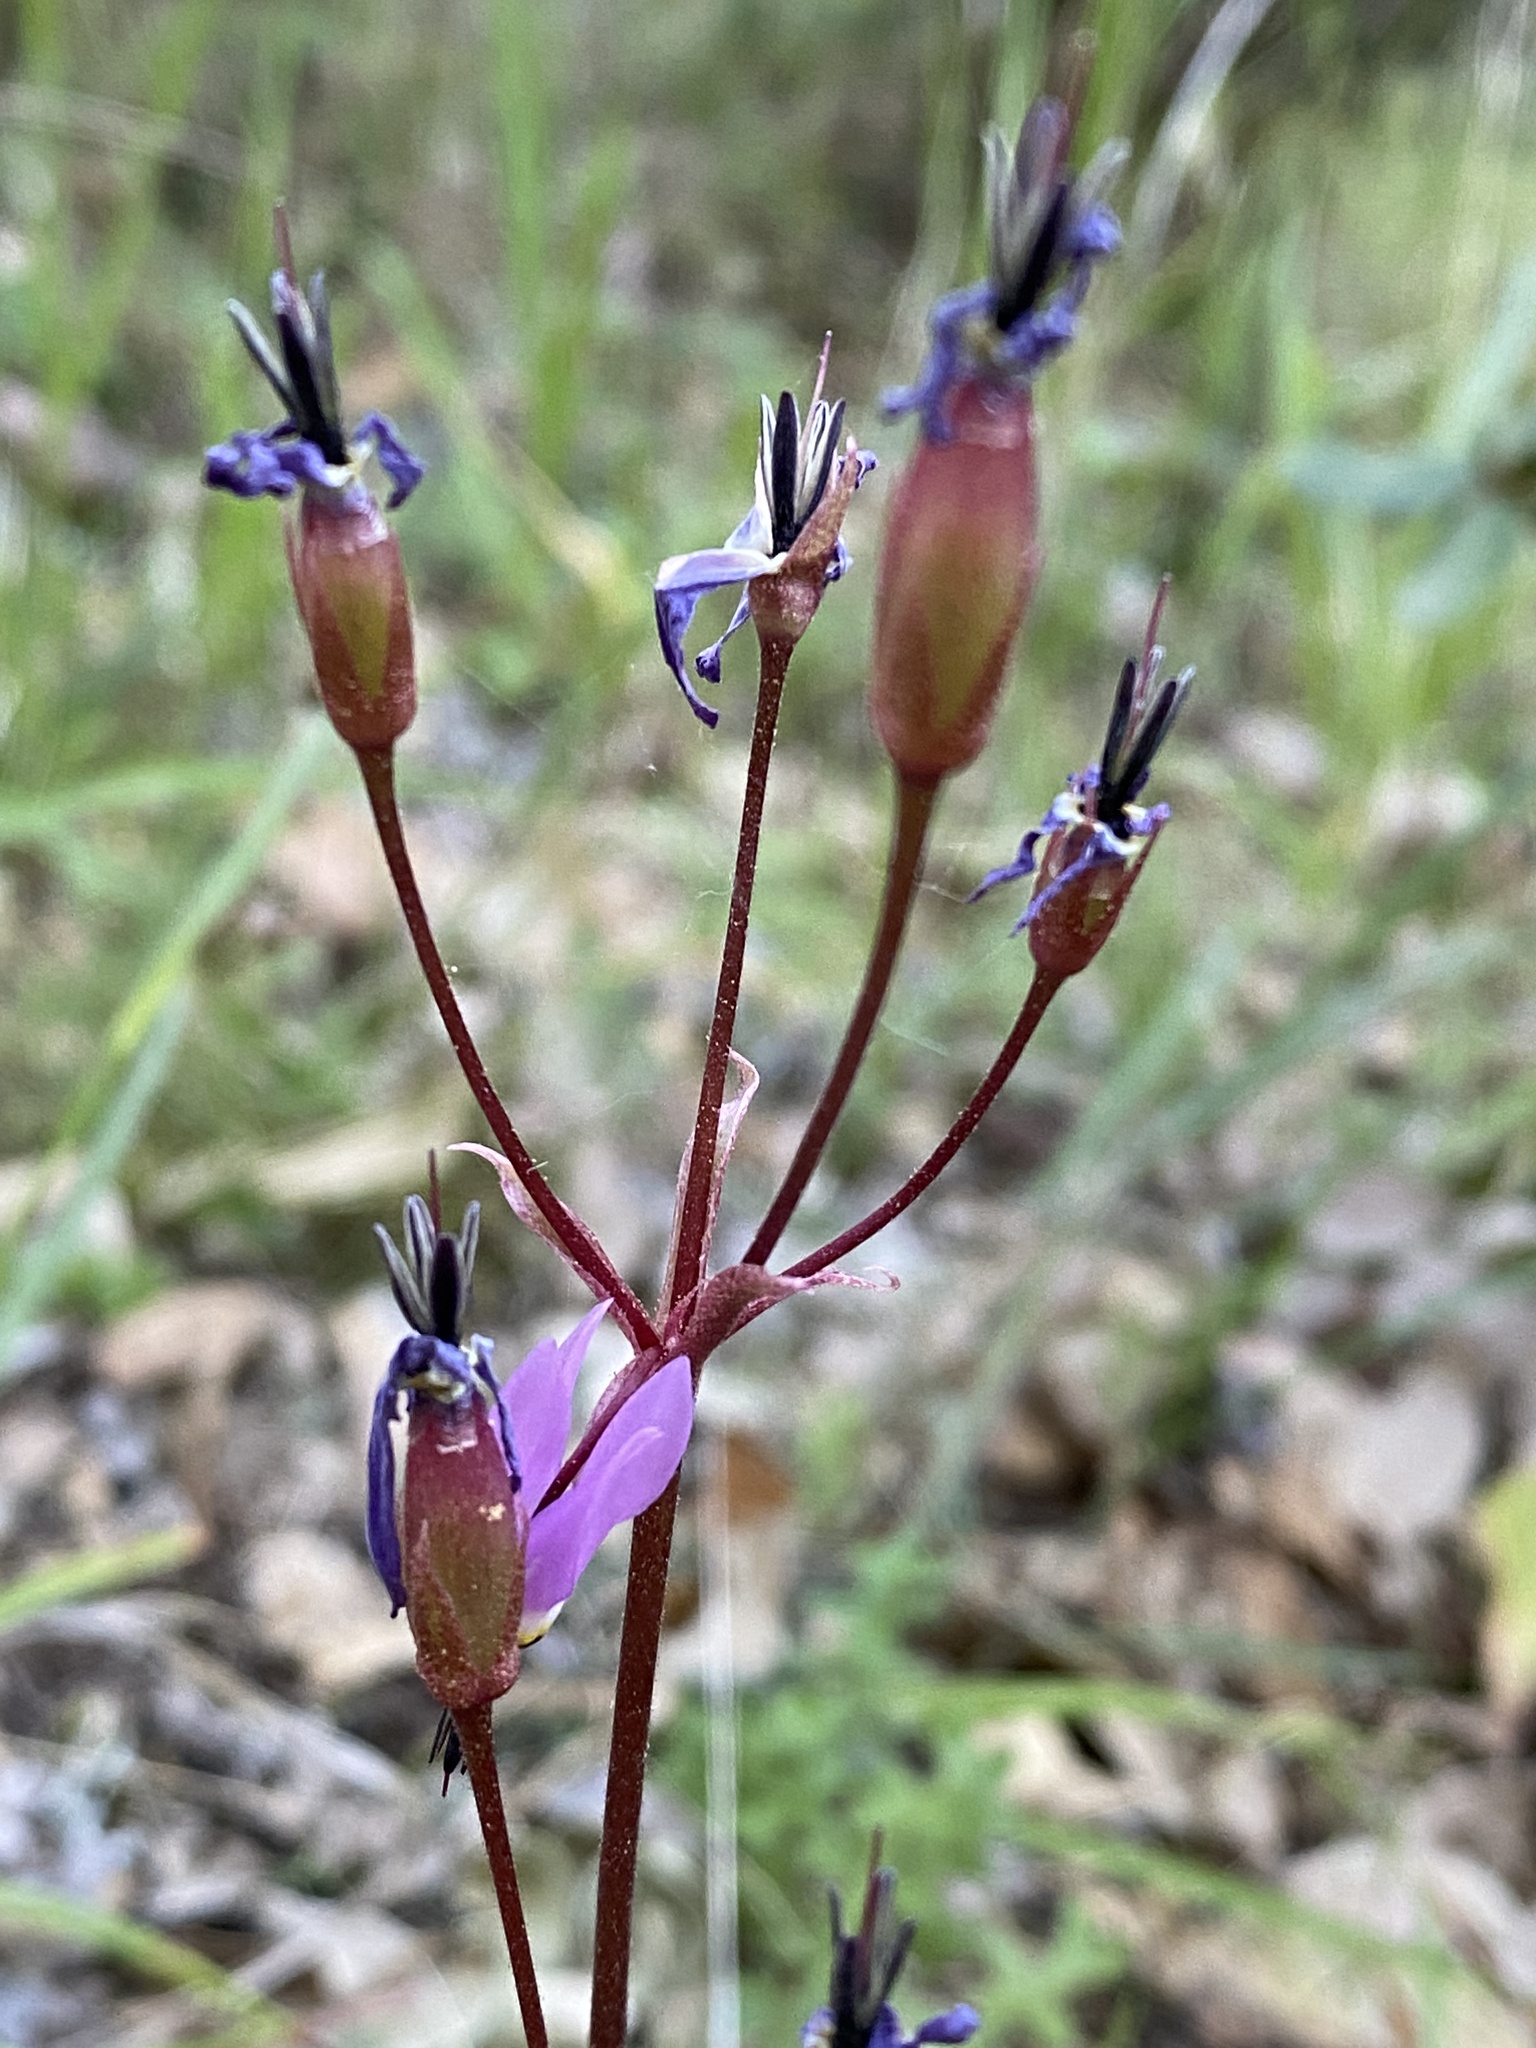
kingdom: Plantae
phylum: Tracheophyta
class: Magnoliopsida
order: Ericales
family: Primulaceae
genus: Dodecatheon
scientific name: Dodecatheon hendersonii
